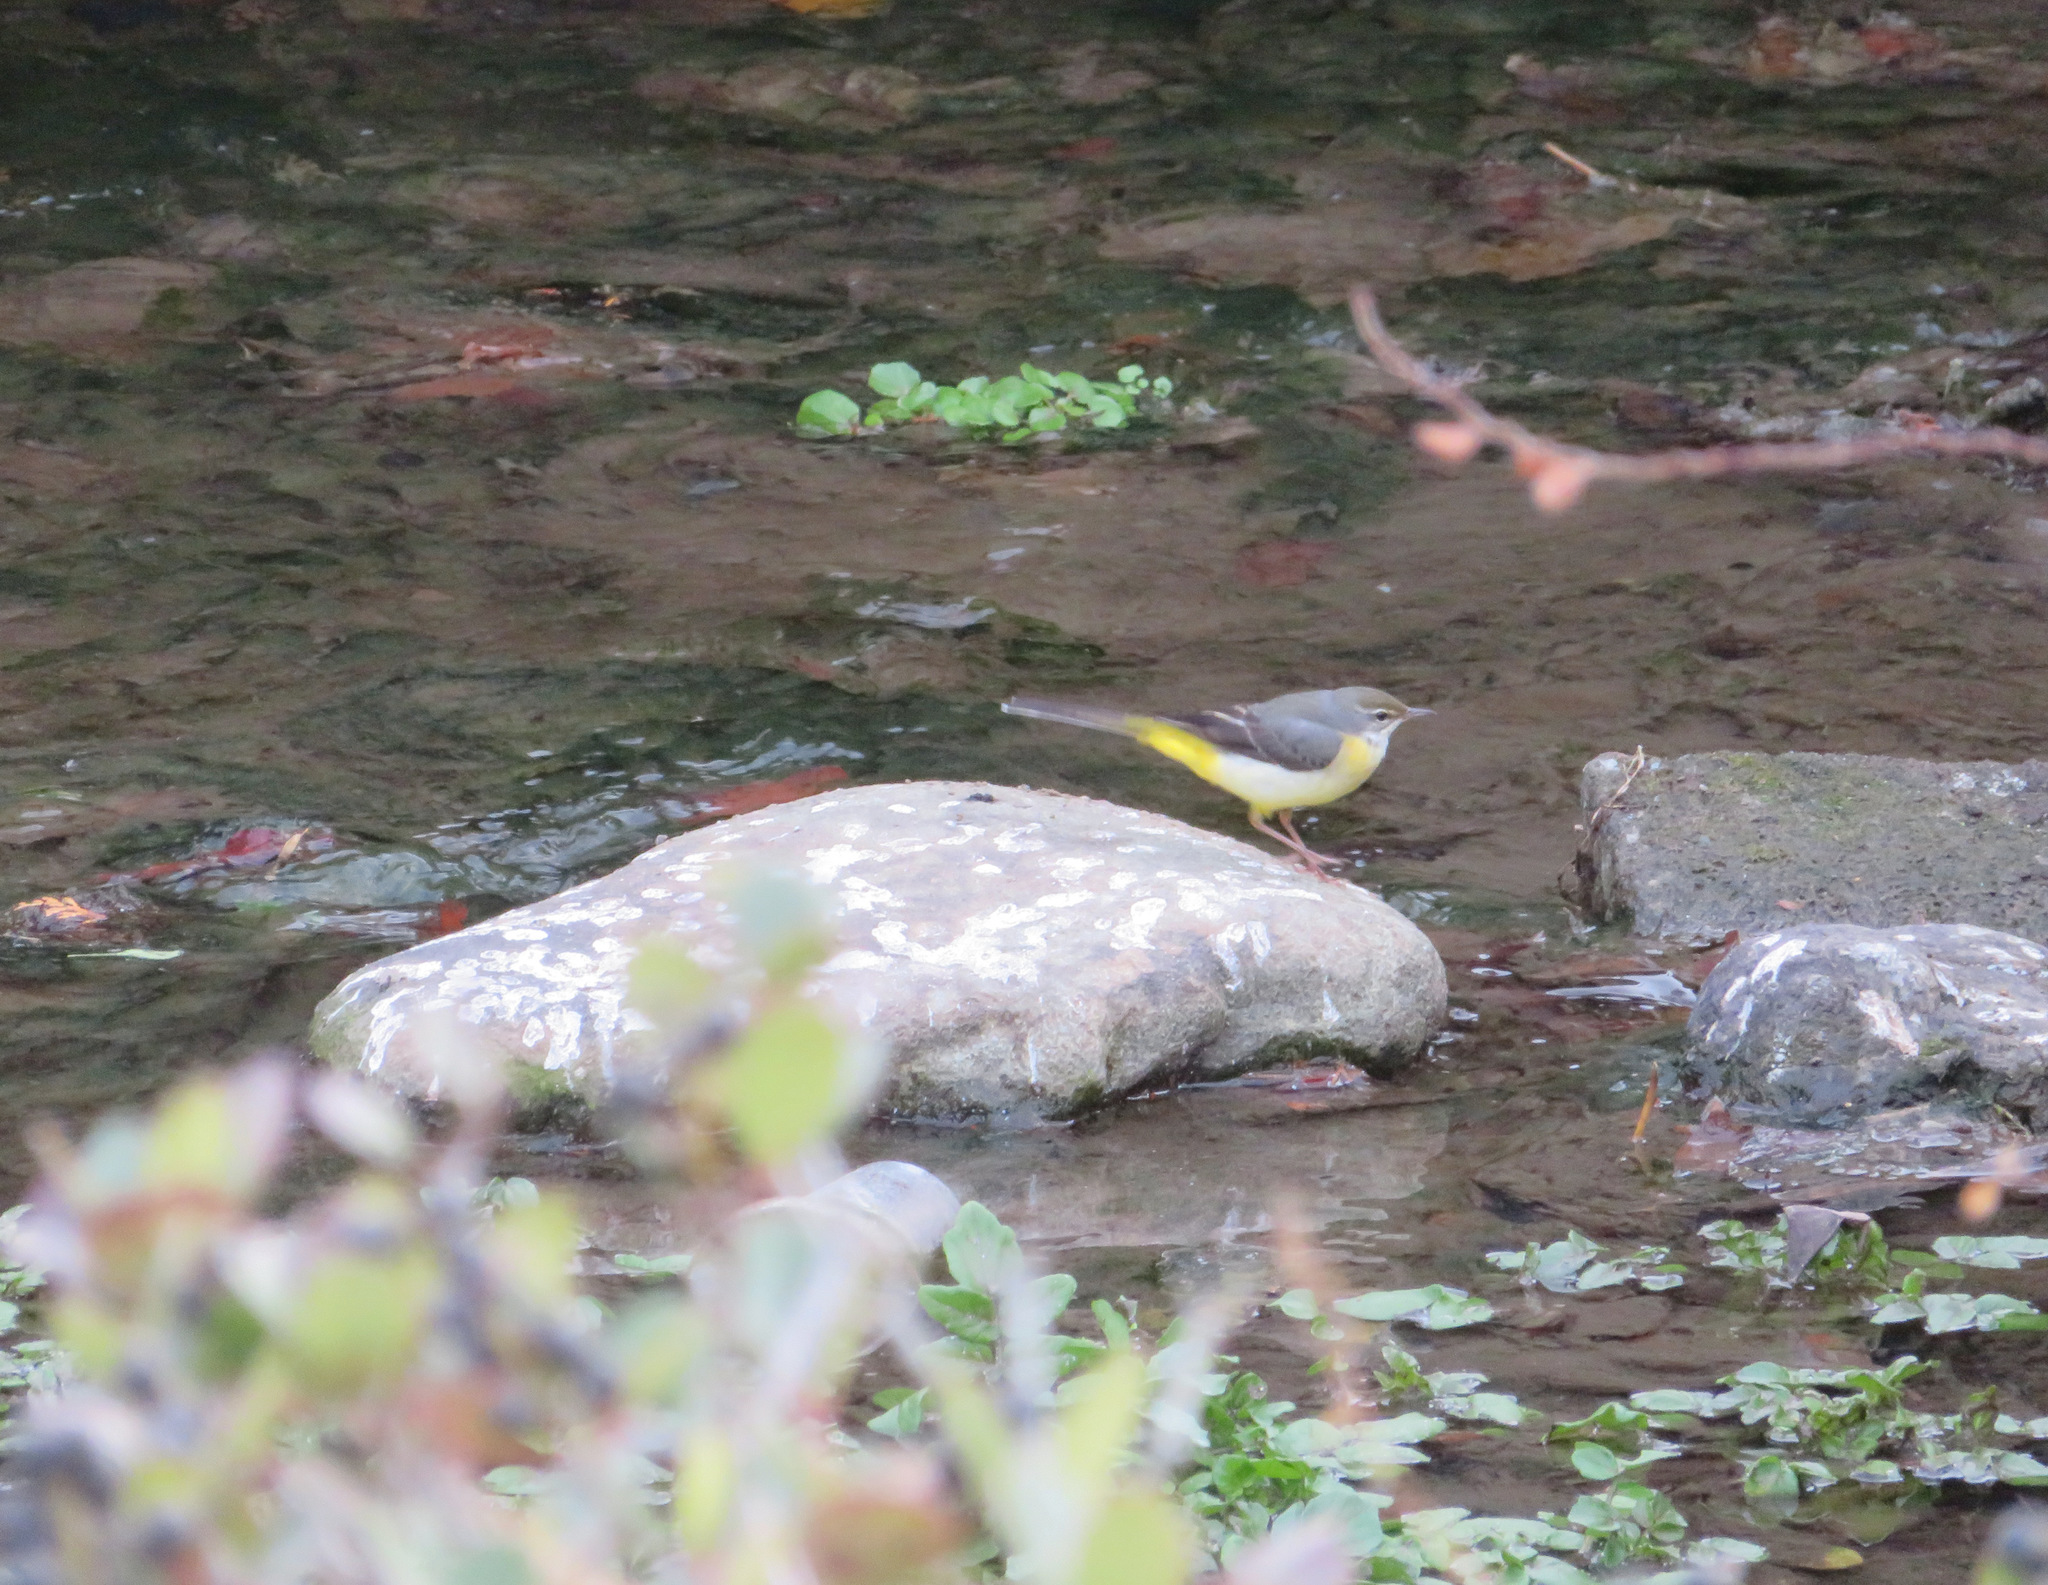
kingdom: Animalia
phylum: Chordata
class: Aves
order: Passeriformes
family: Motacillidae
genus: Motacilla
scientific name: Motacilla cinerea
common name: Grey wagtail
